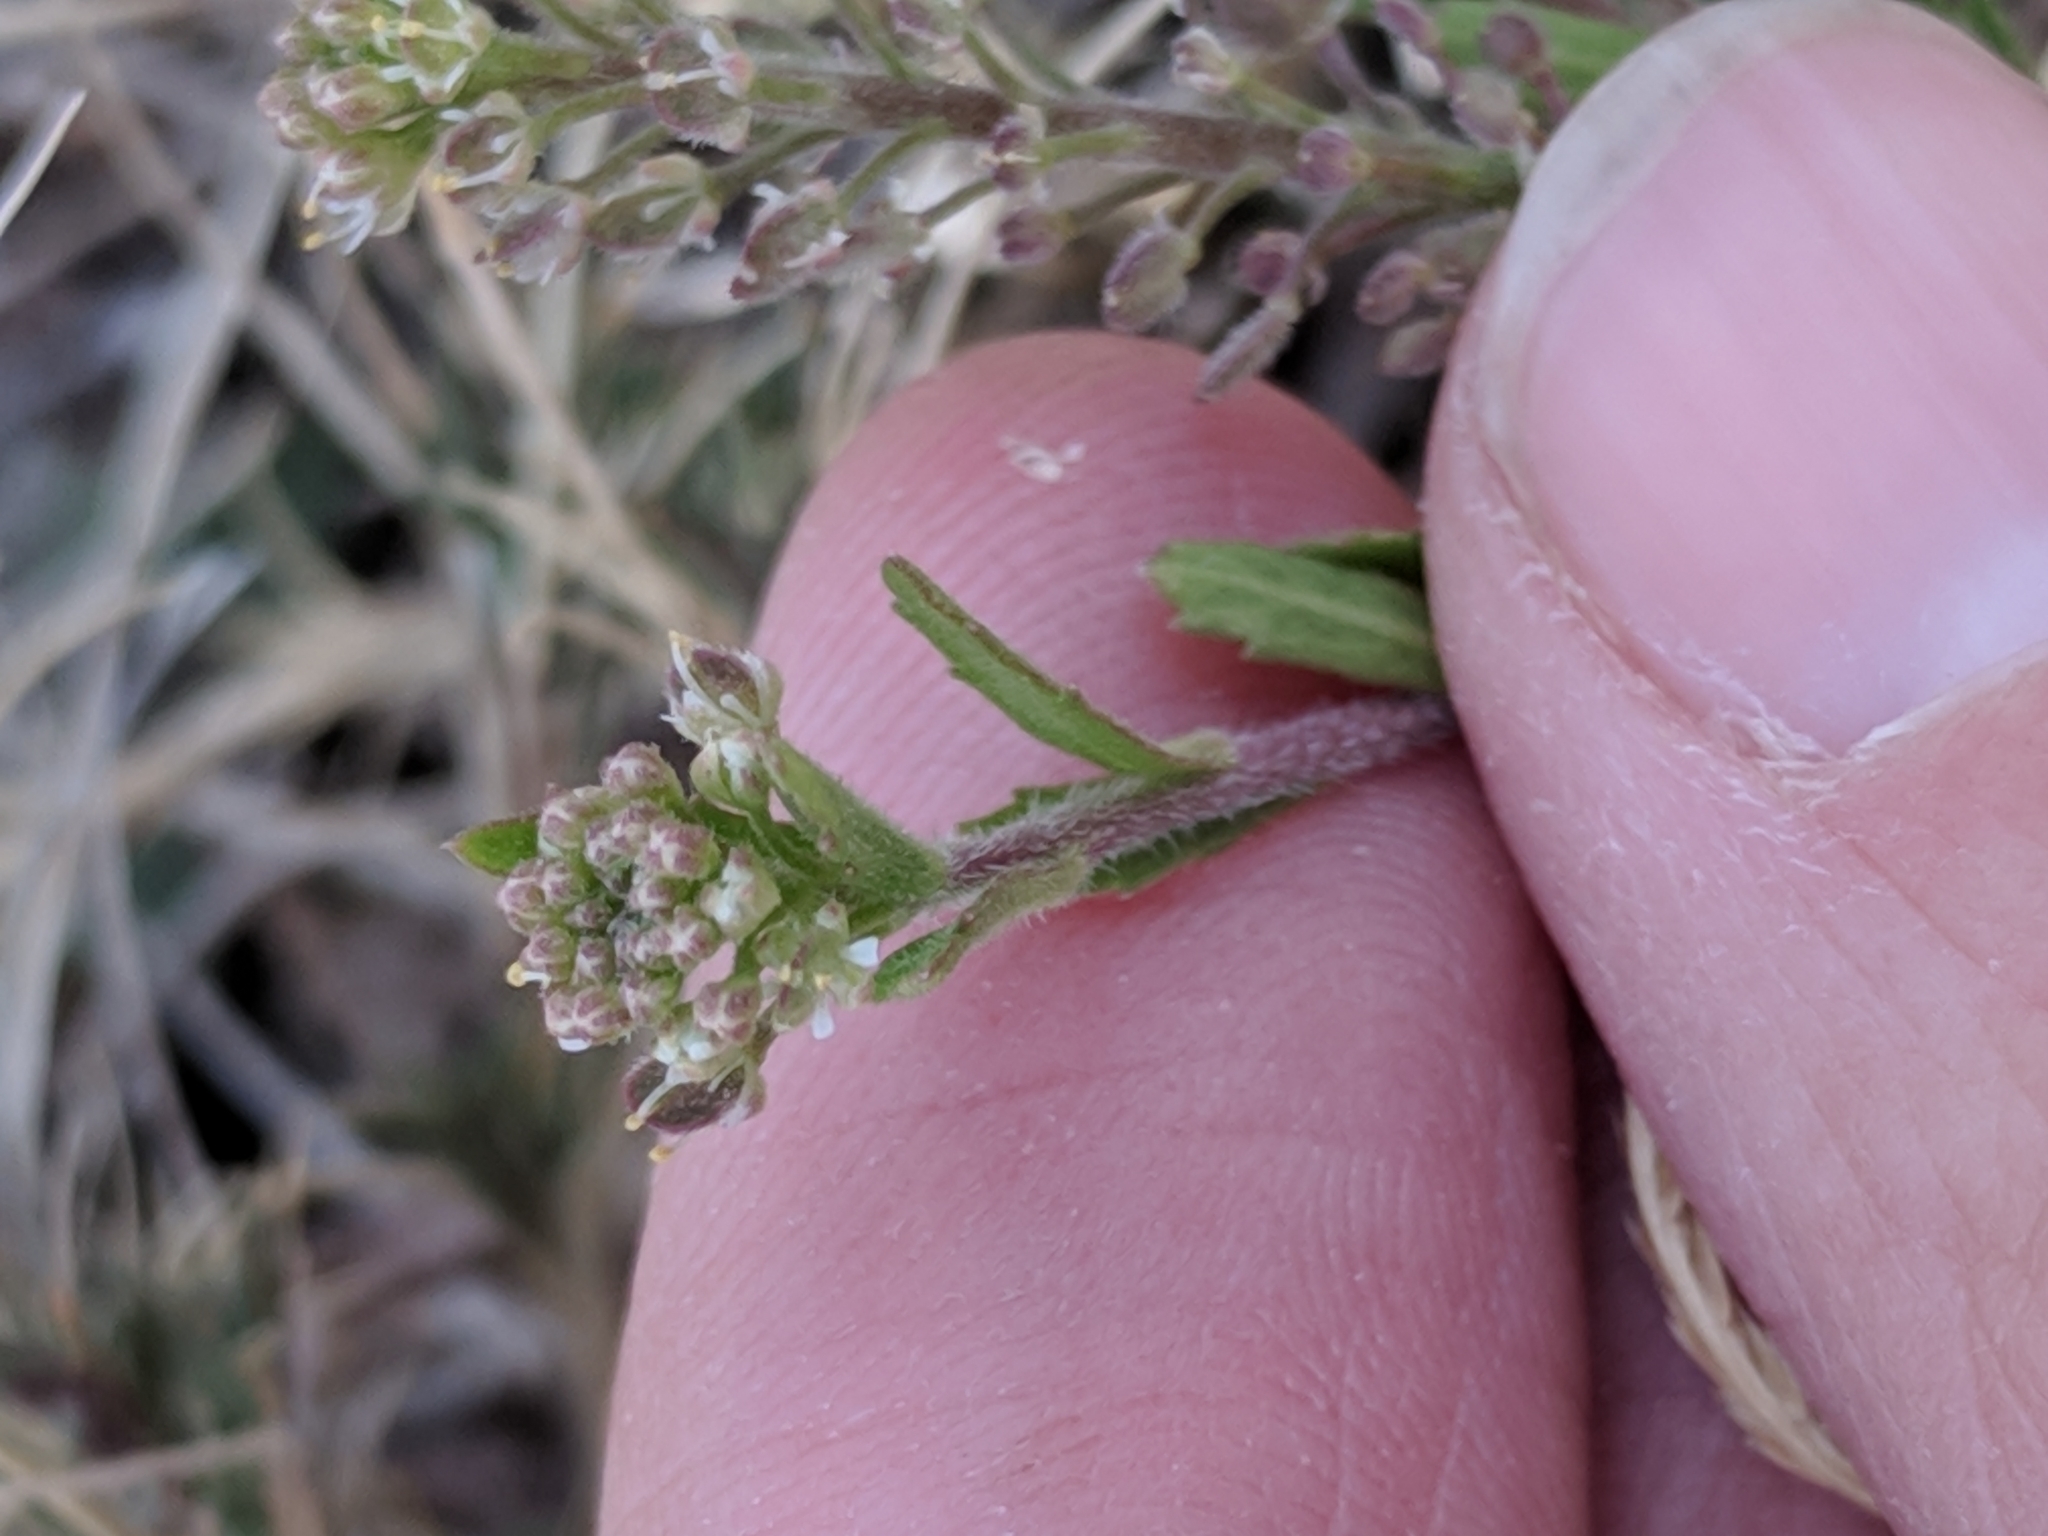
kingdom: Plantae
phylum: Tracheophyta
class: Magnoliopsida
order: Brassicales
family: Brassicaceae
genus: Lepidium
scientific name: Lepidium lasiocarpum
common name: Hairy-pod pepperwort
